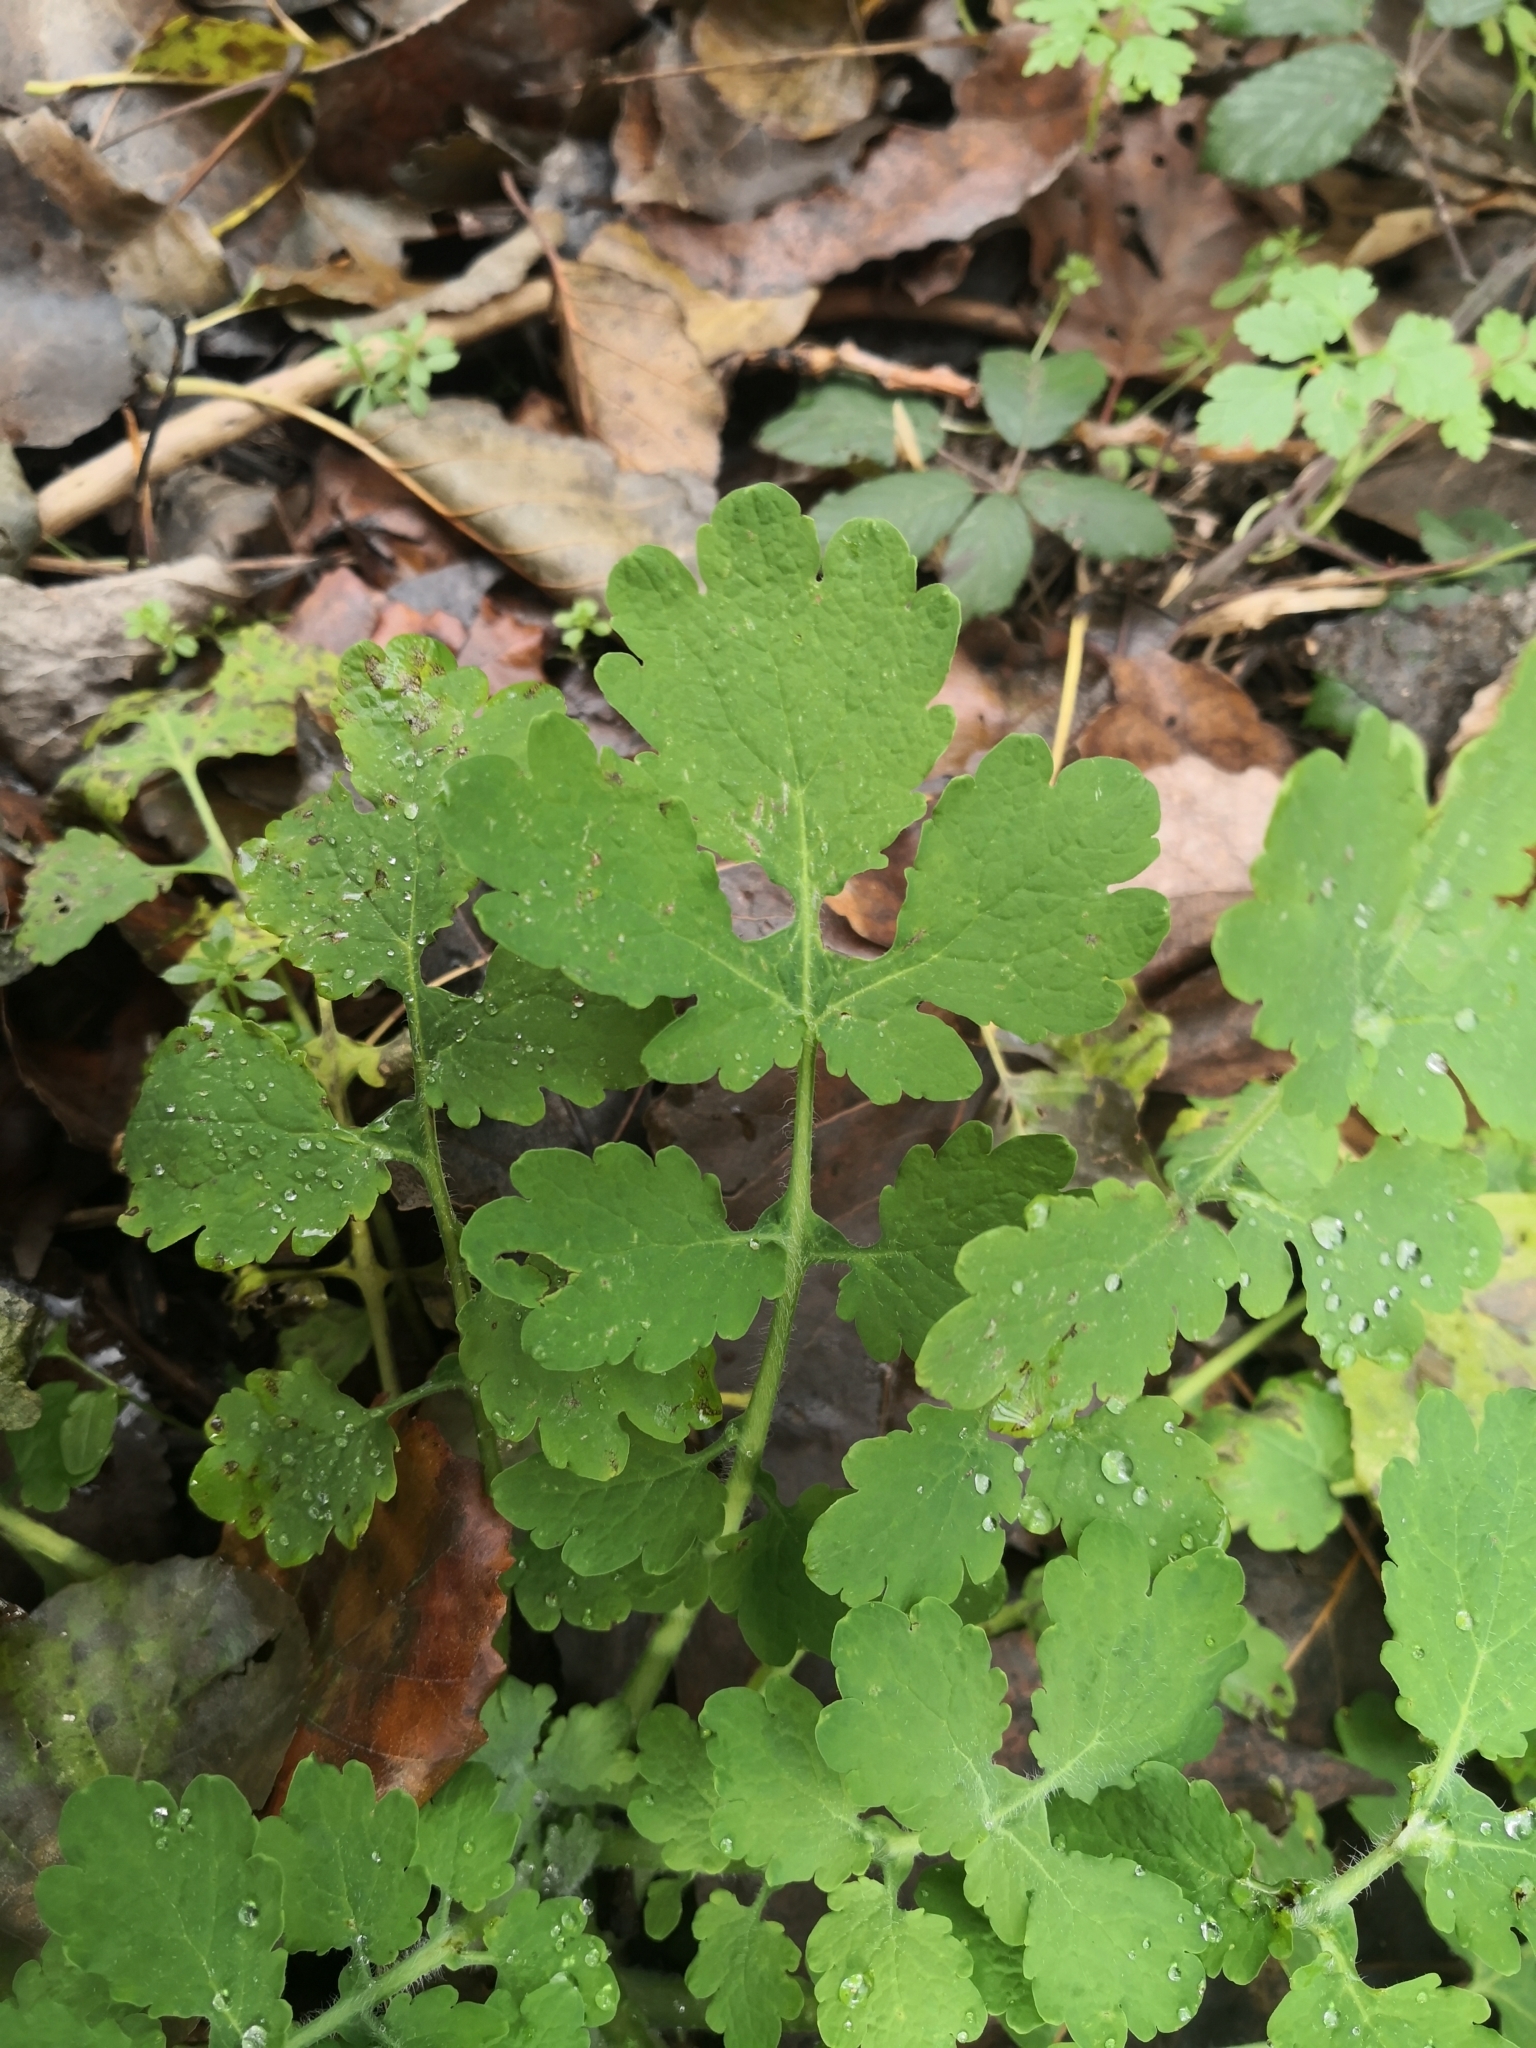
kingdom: Plantae
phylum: Tracheophyta
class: Magnoliopsida
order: Ranunculales
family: Papaveraceae
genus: Chelidonium
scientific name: Chelidonium majus
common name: Greater celandine
